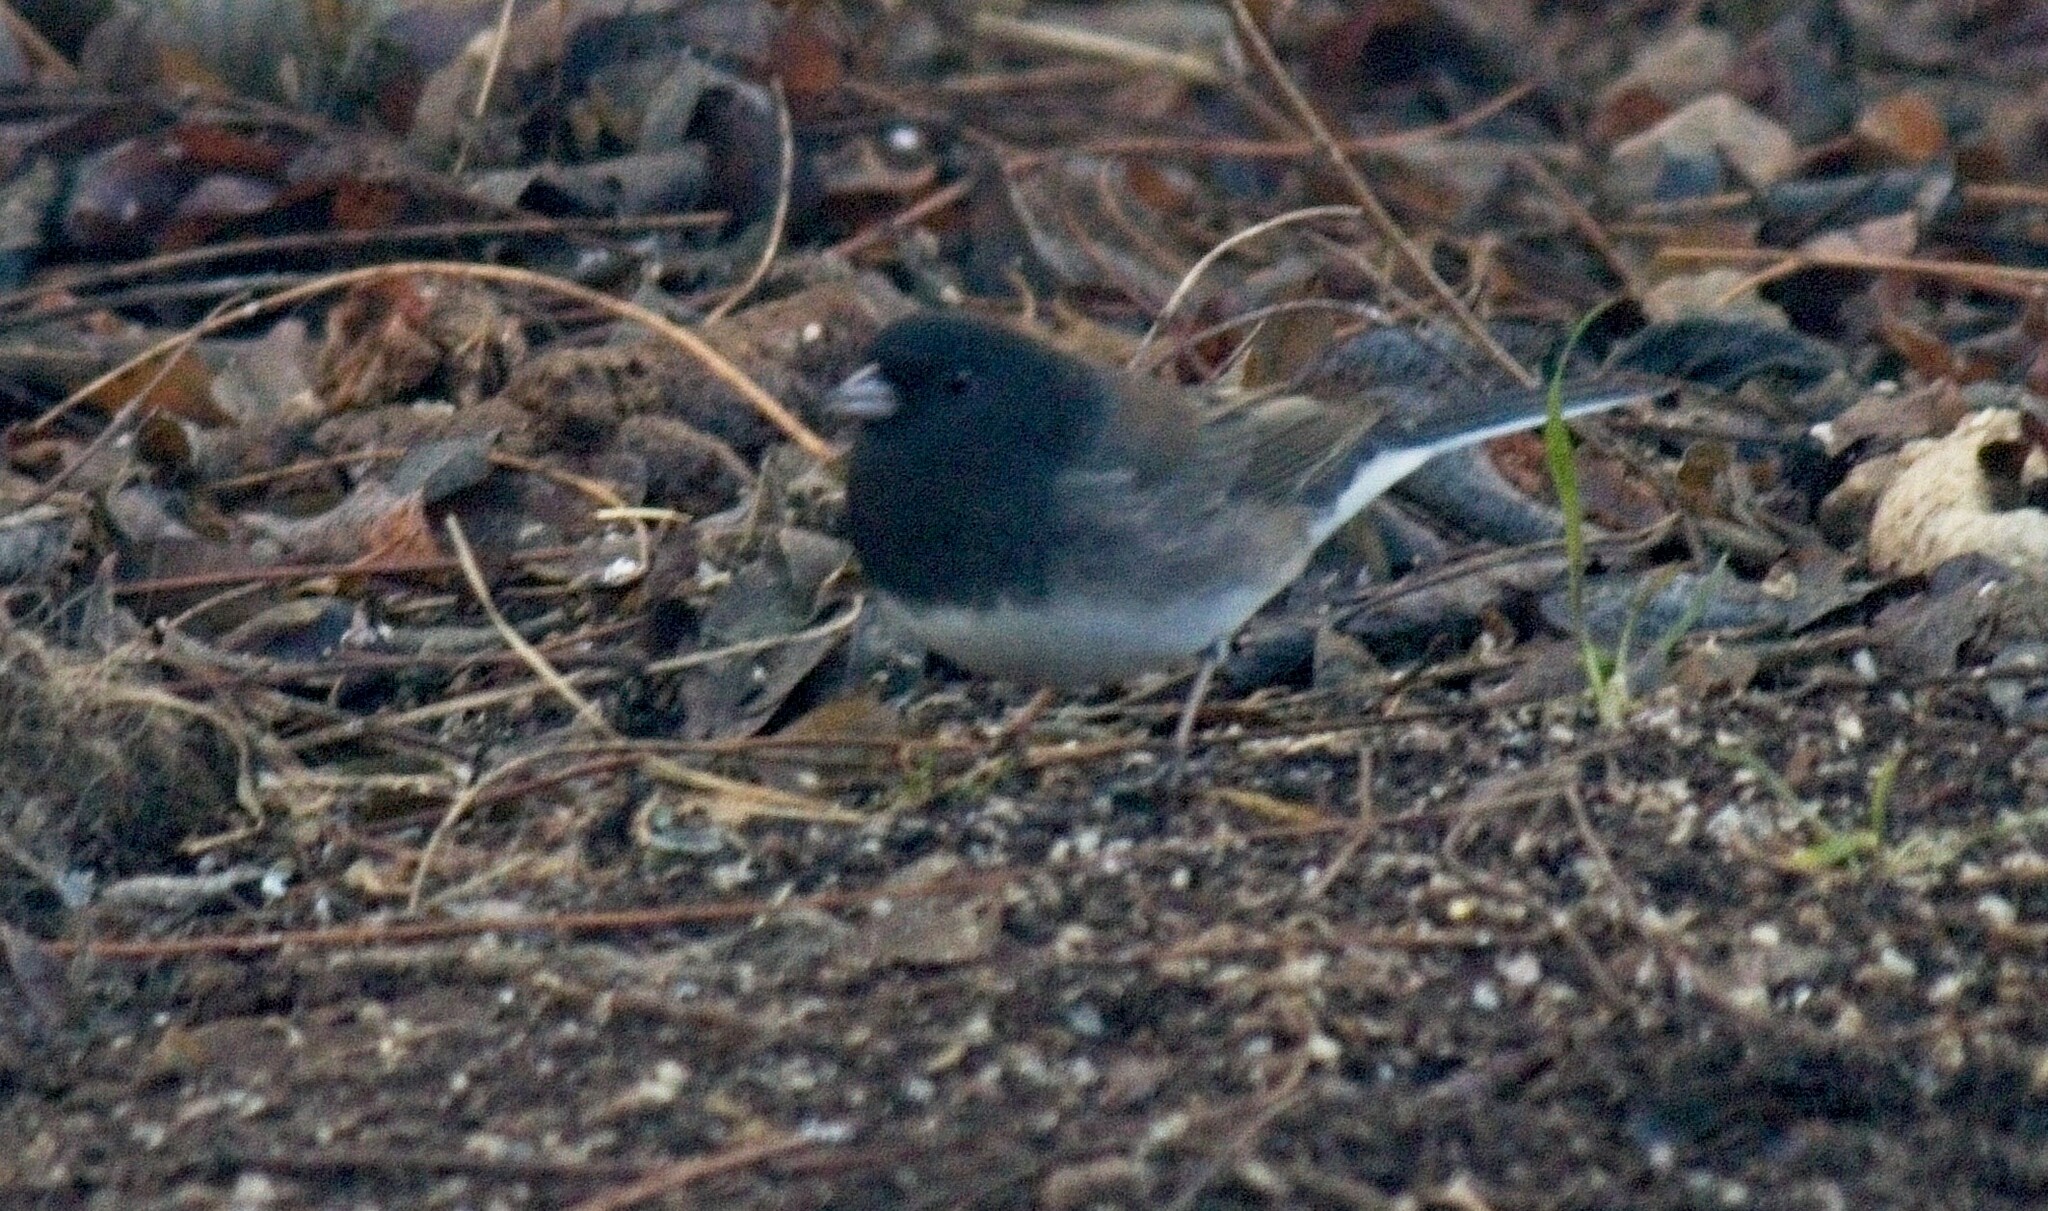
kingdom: Animalia
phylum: Chordata
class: Aves
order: Passeriformes
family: Passerellidae
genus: Junco
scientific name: Junco hyemalis
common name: Dark-eyed junco
